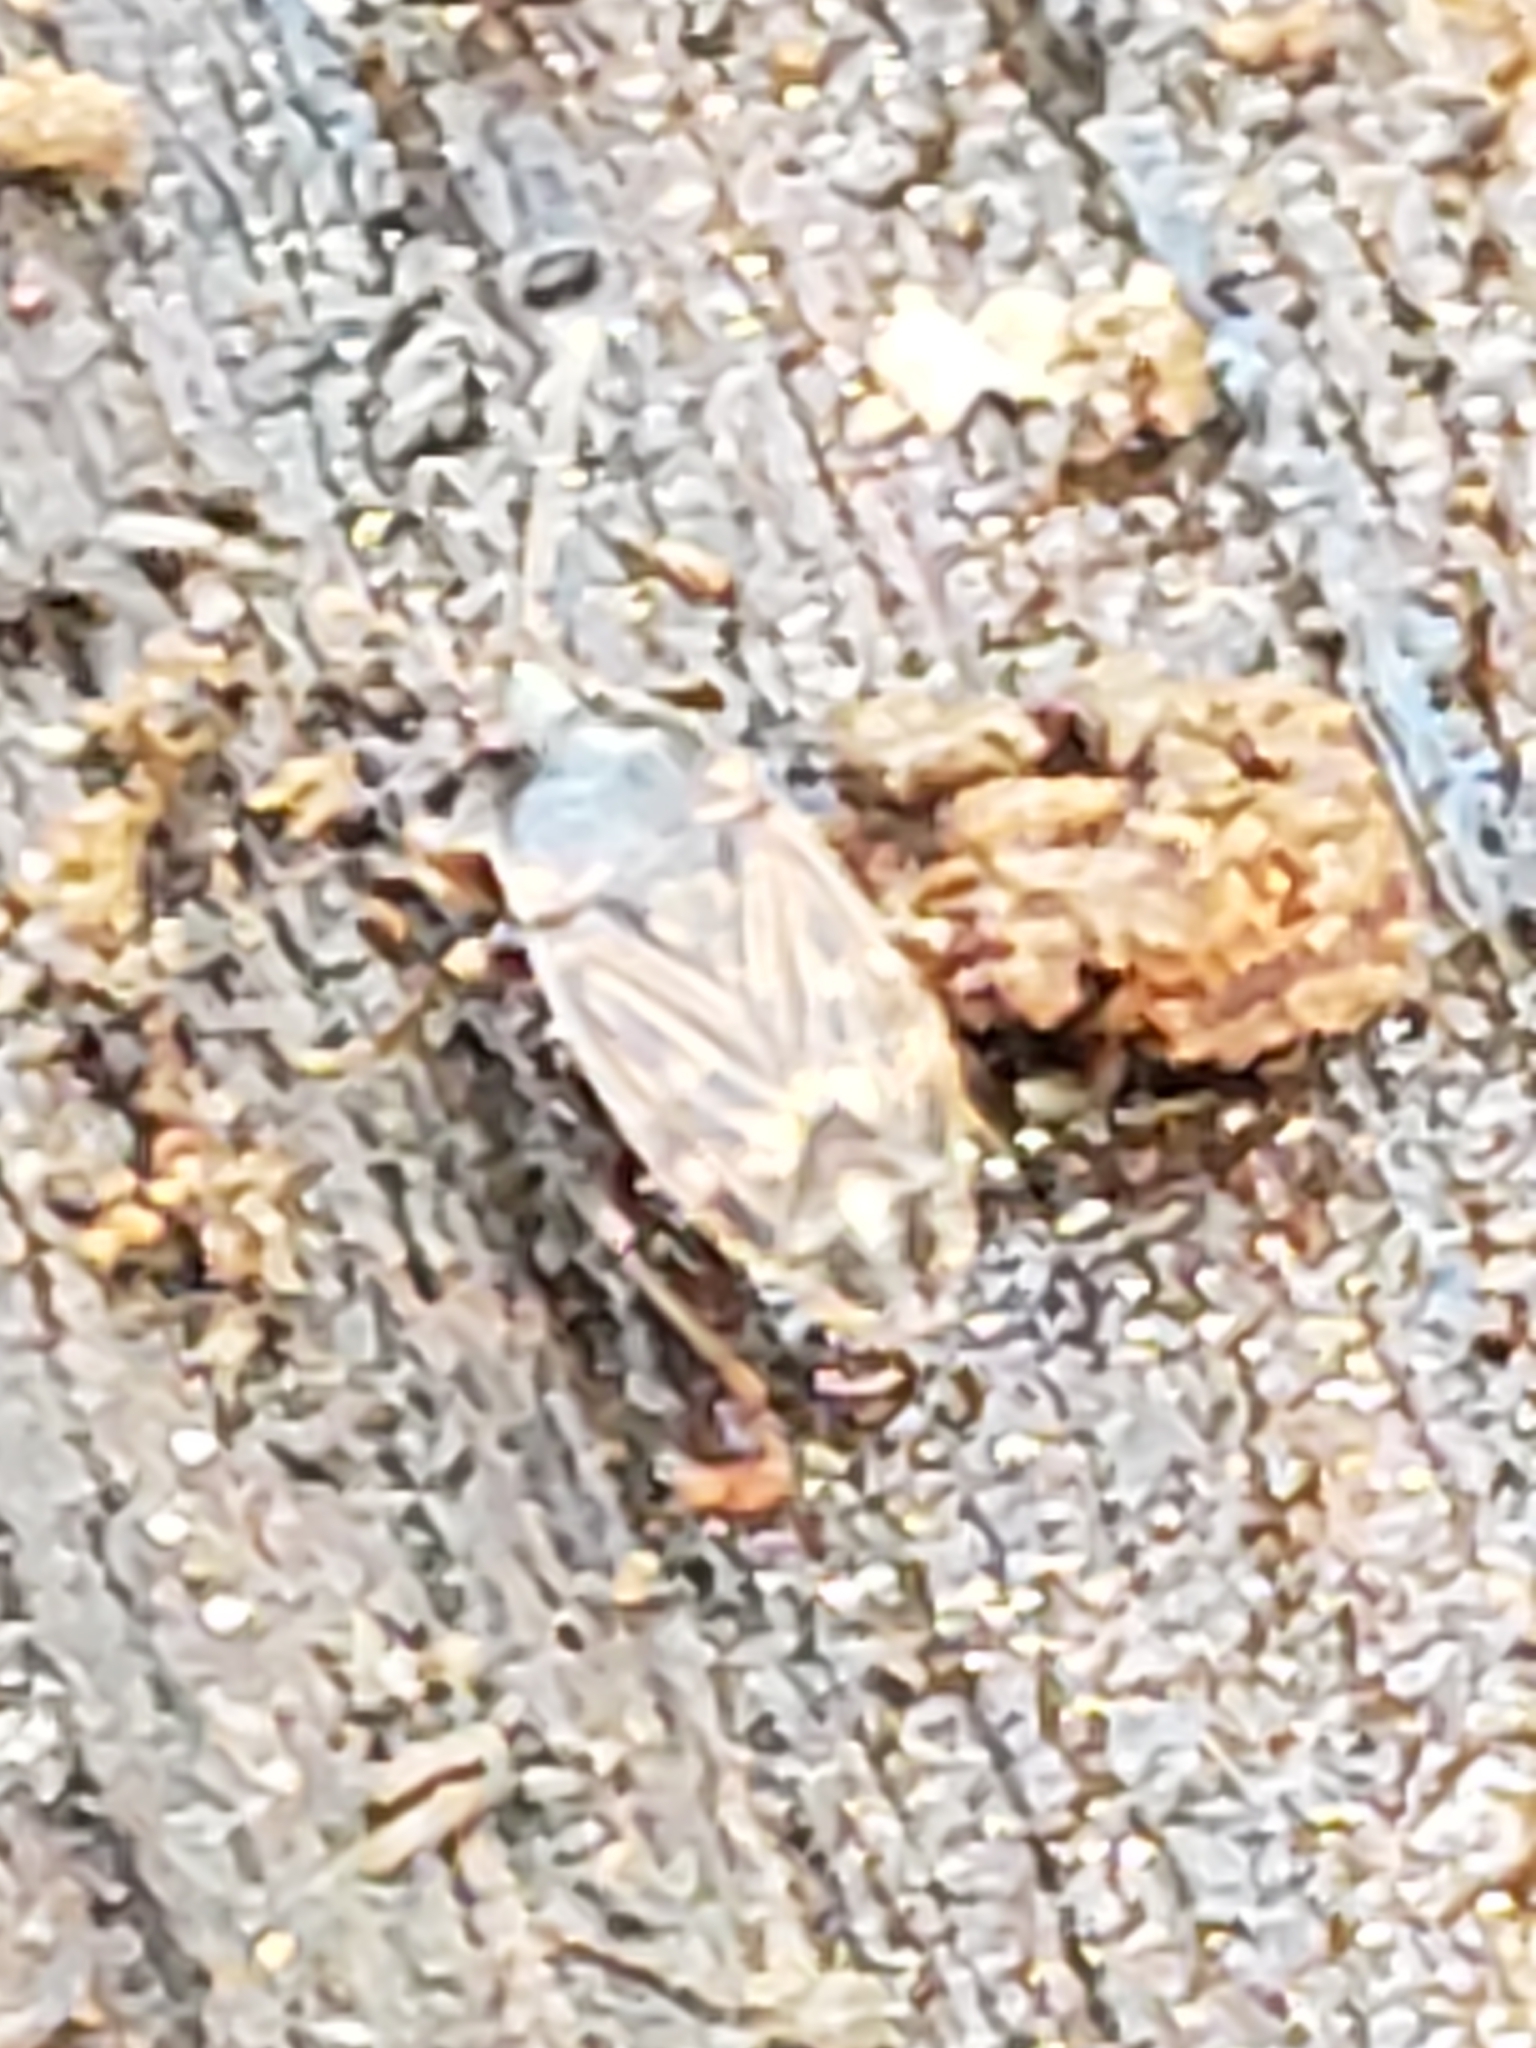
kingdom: Animalia
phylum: Arthropoda
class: Insecta
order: Hemiptera
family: Rhyparochromidae
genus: Cryphula
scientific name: Cryphula trimaculata
